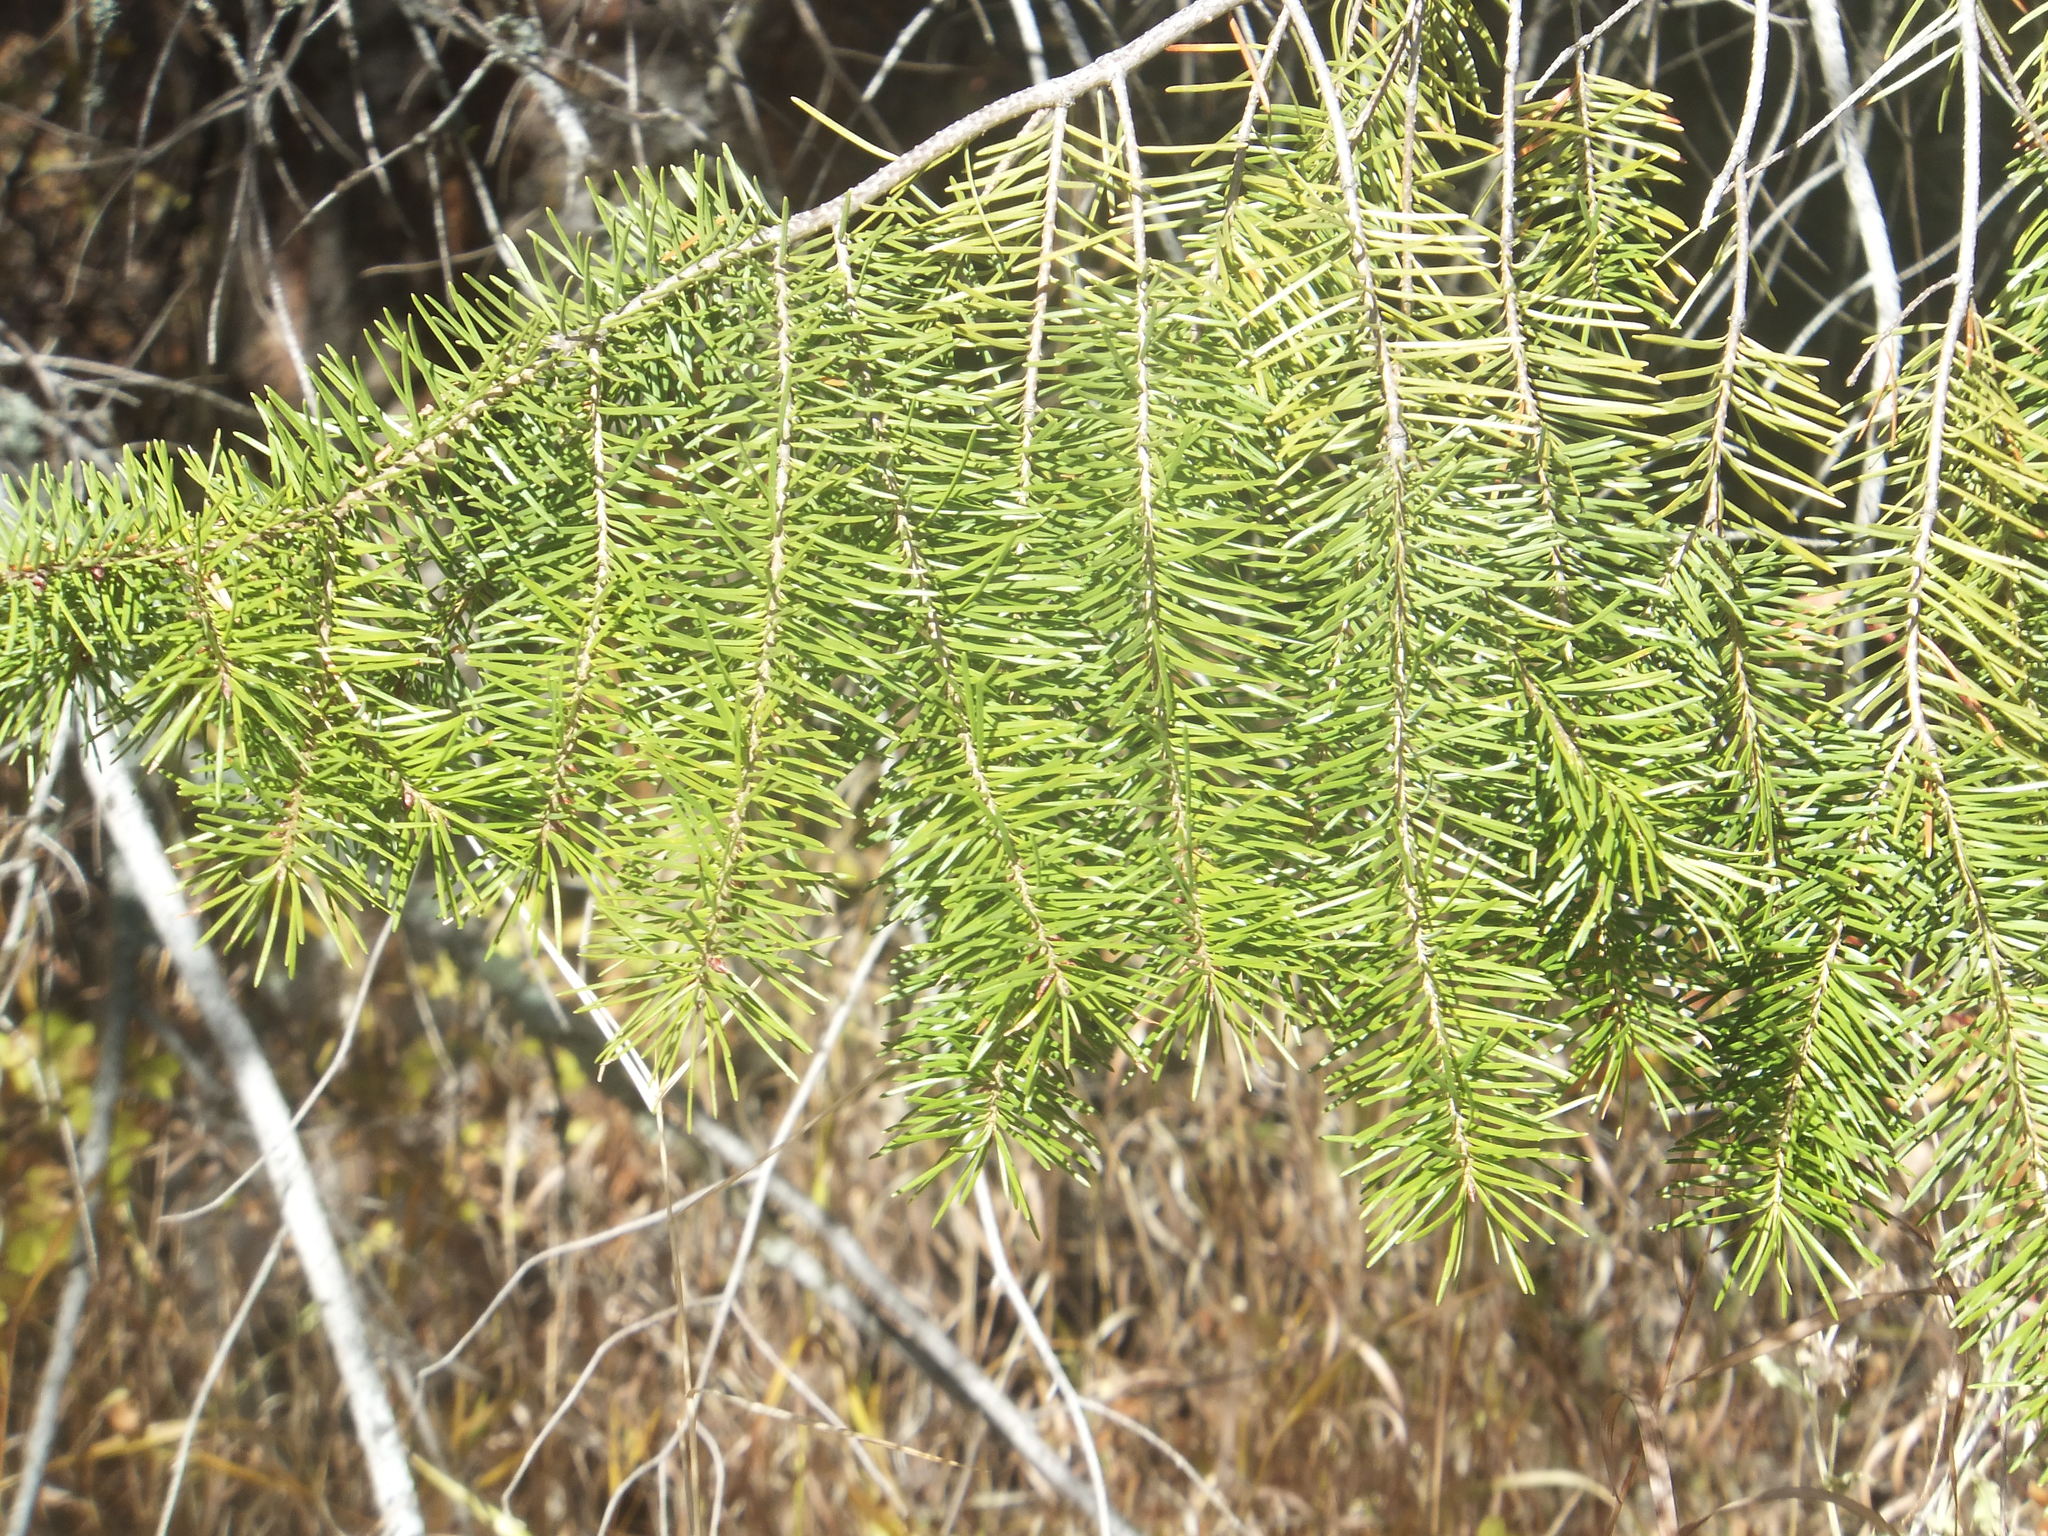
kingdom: Plantae
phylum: Tracheophyta
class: Pinopsida
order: Pinales
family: Pinaceae
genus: Pseudotsuga
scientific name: Pseudotsuga menziesii
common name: Douglas fir
